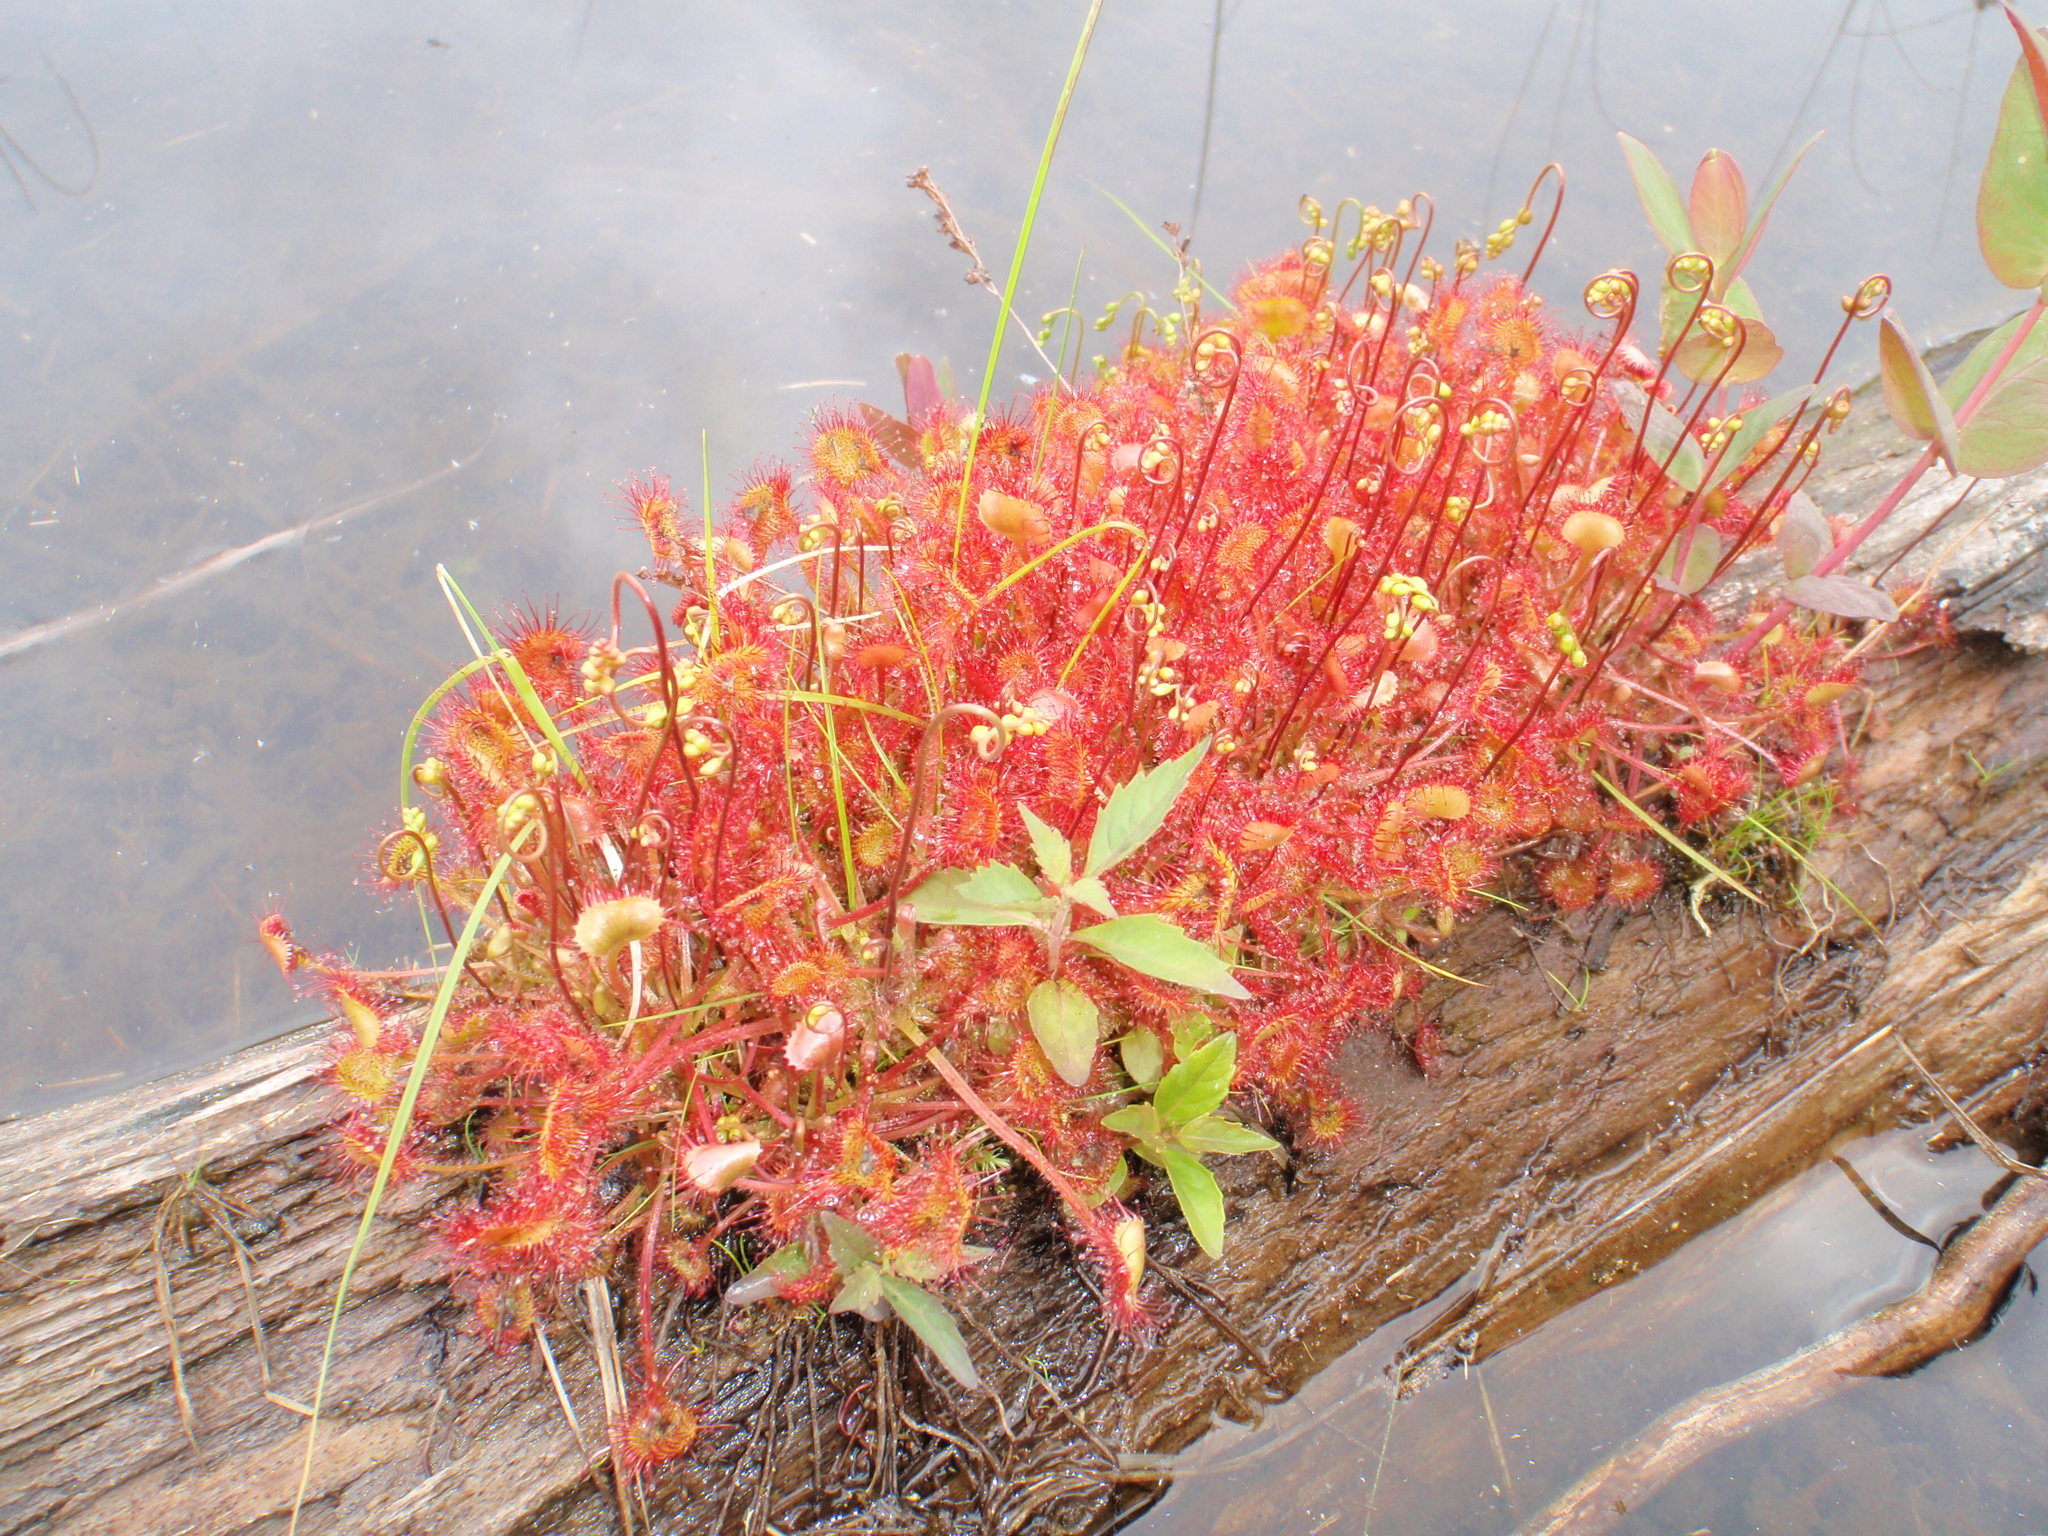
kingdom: Plantae
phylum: Tracheophyta
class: Magnoliopsida
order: Caryophyllales
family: Droseraceae
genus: Drosera
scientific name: Drosera rotundifolia
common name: Round-leaved sundew
